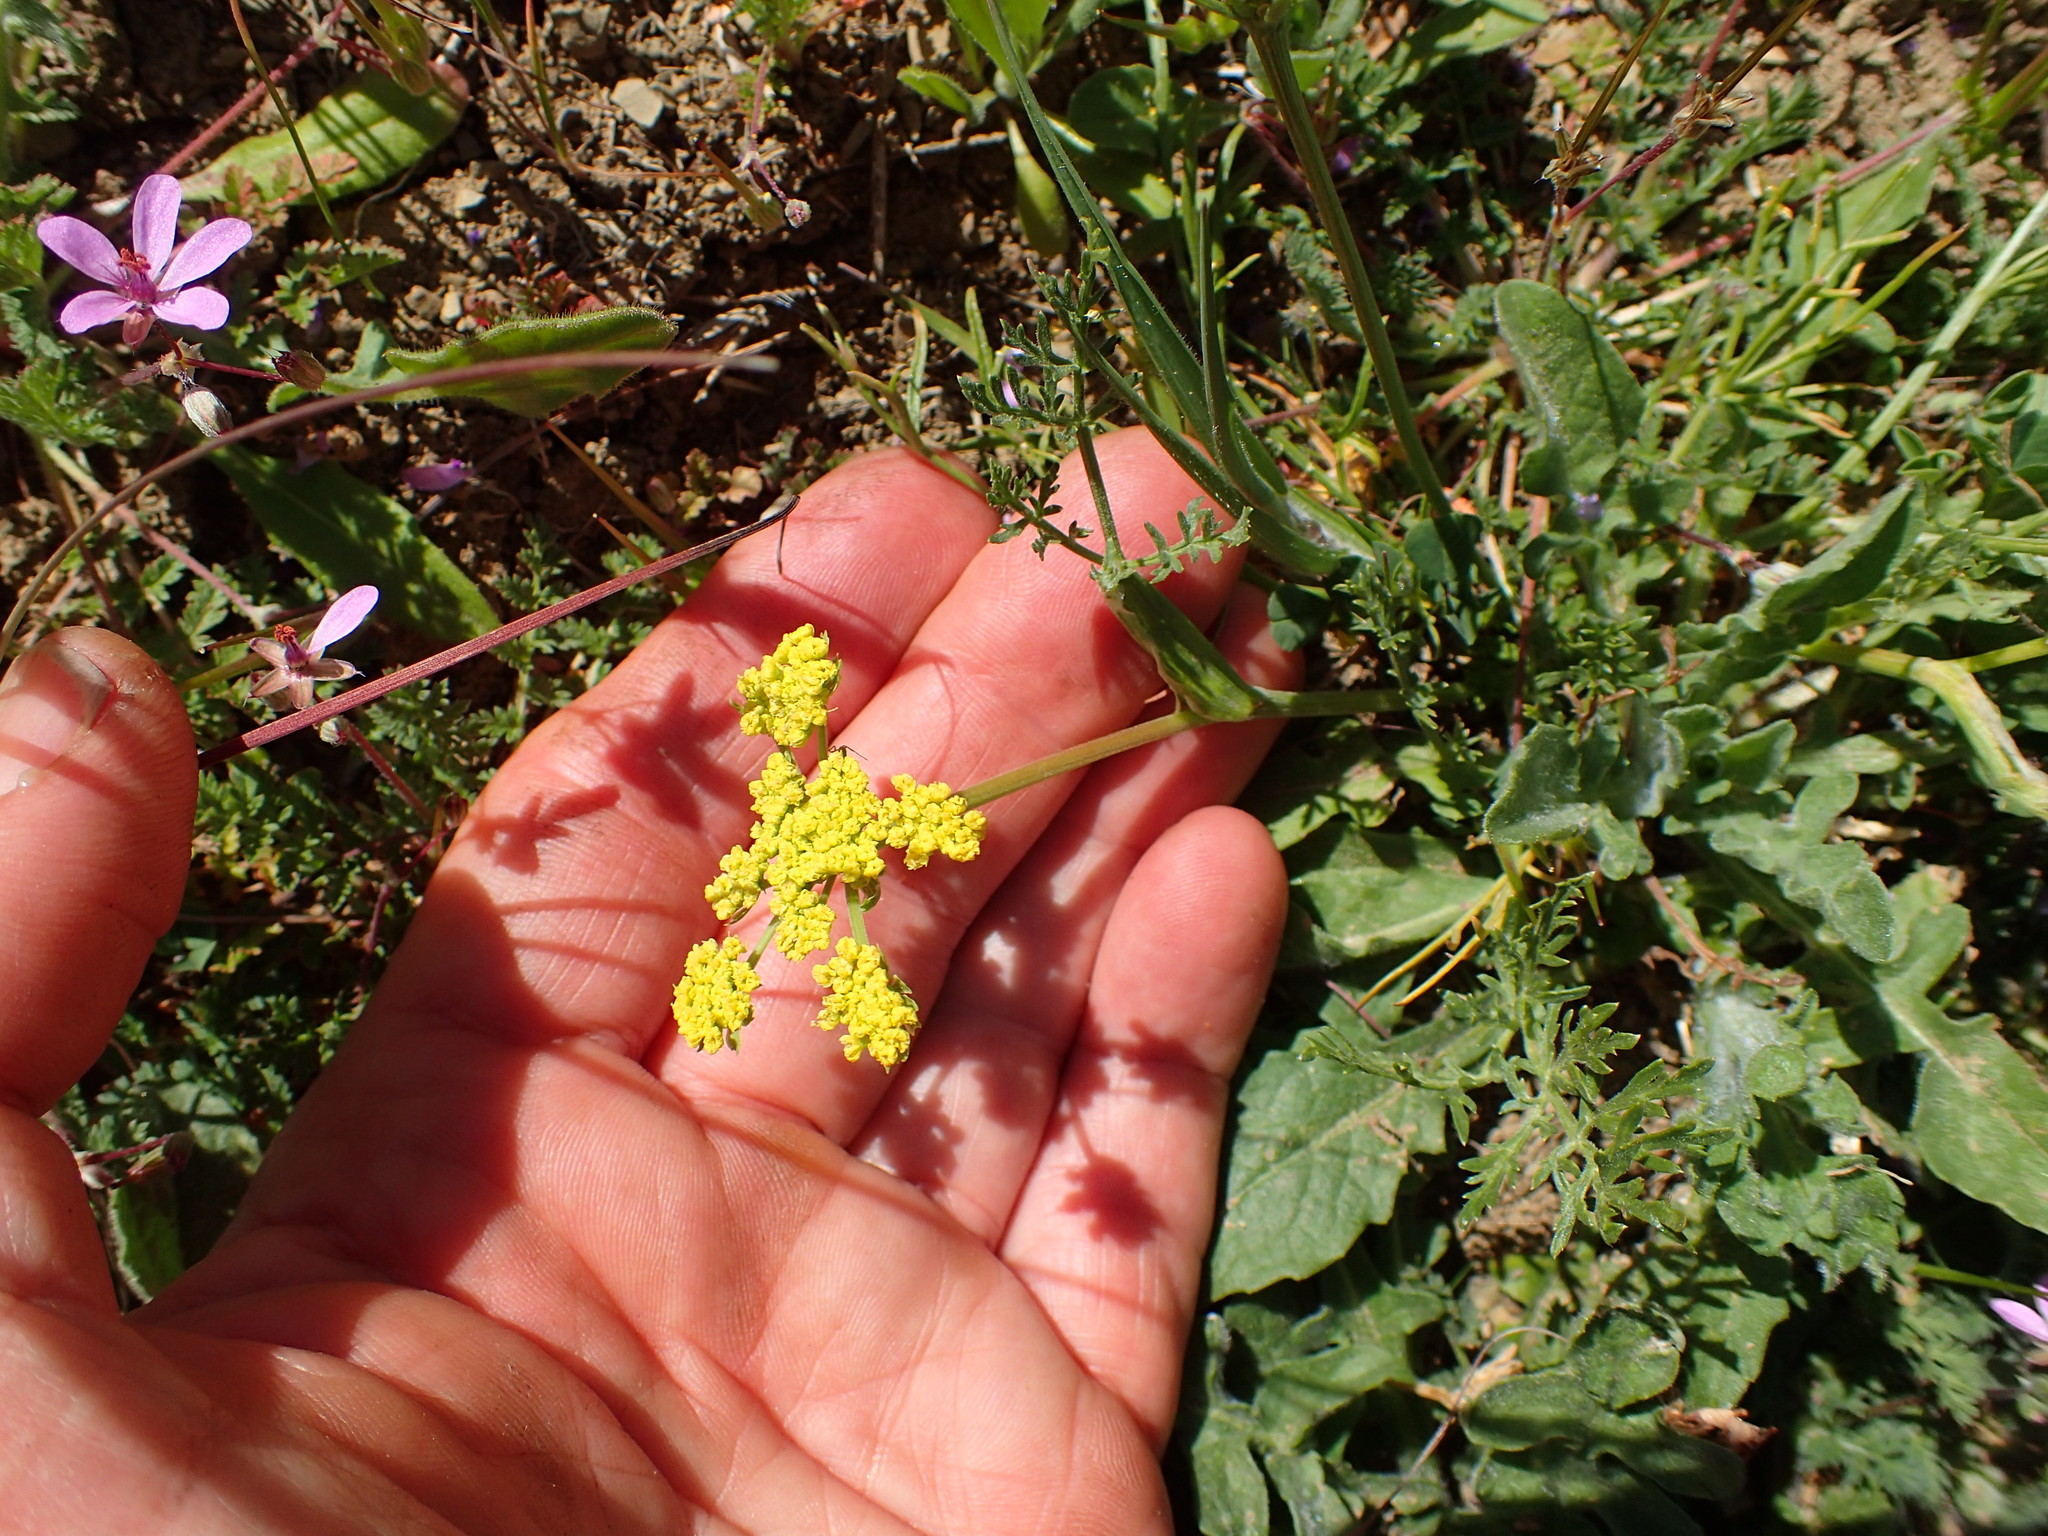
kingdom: Plantae
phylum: Tracheophyta
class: Magnoliopsida
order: Apiales
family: Apiaceae
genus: Lomatium
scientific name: Lomatium utriculatum
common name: Fine-leaf desert-parsley
